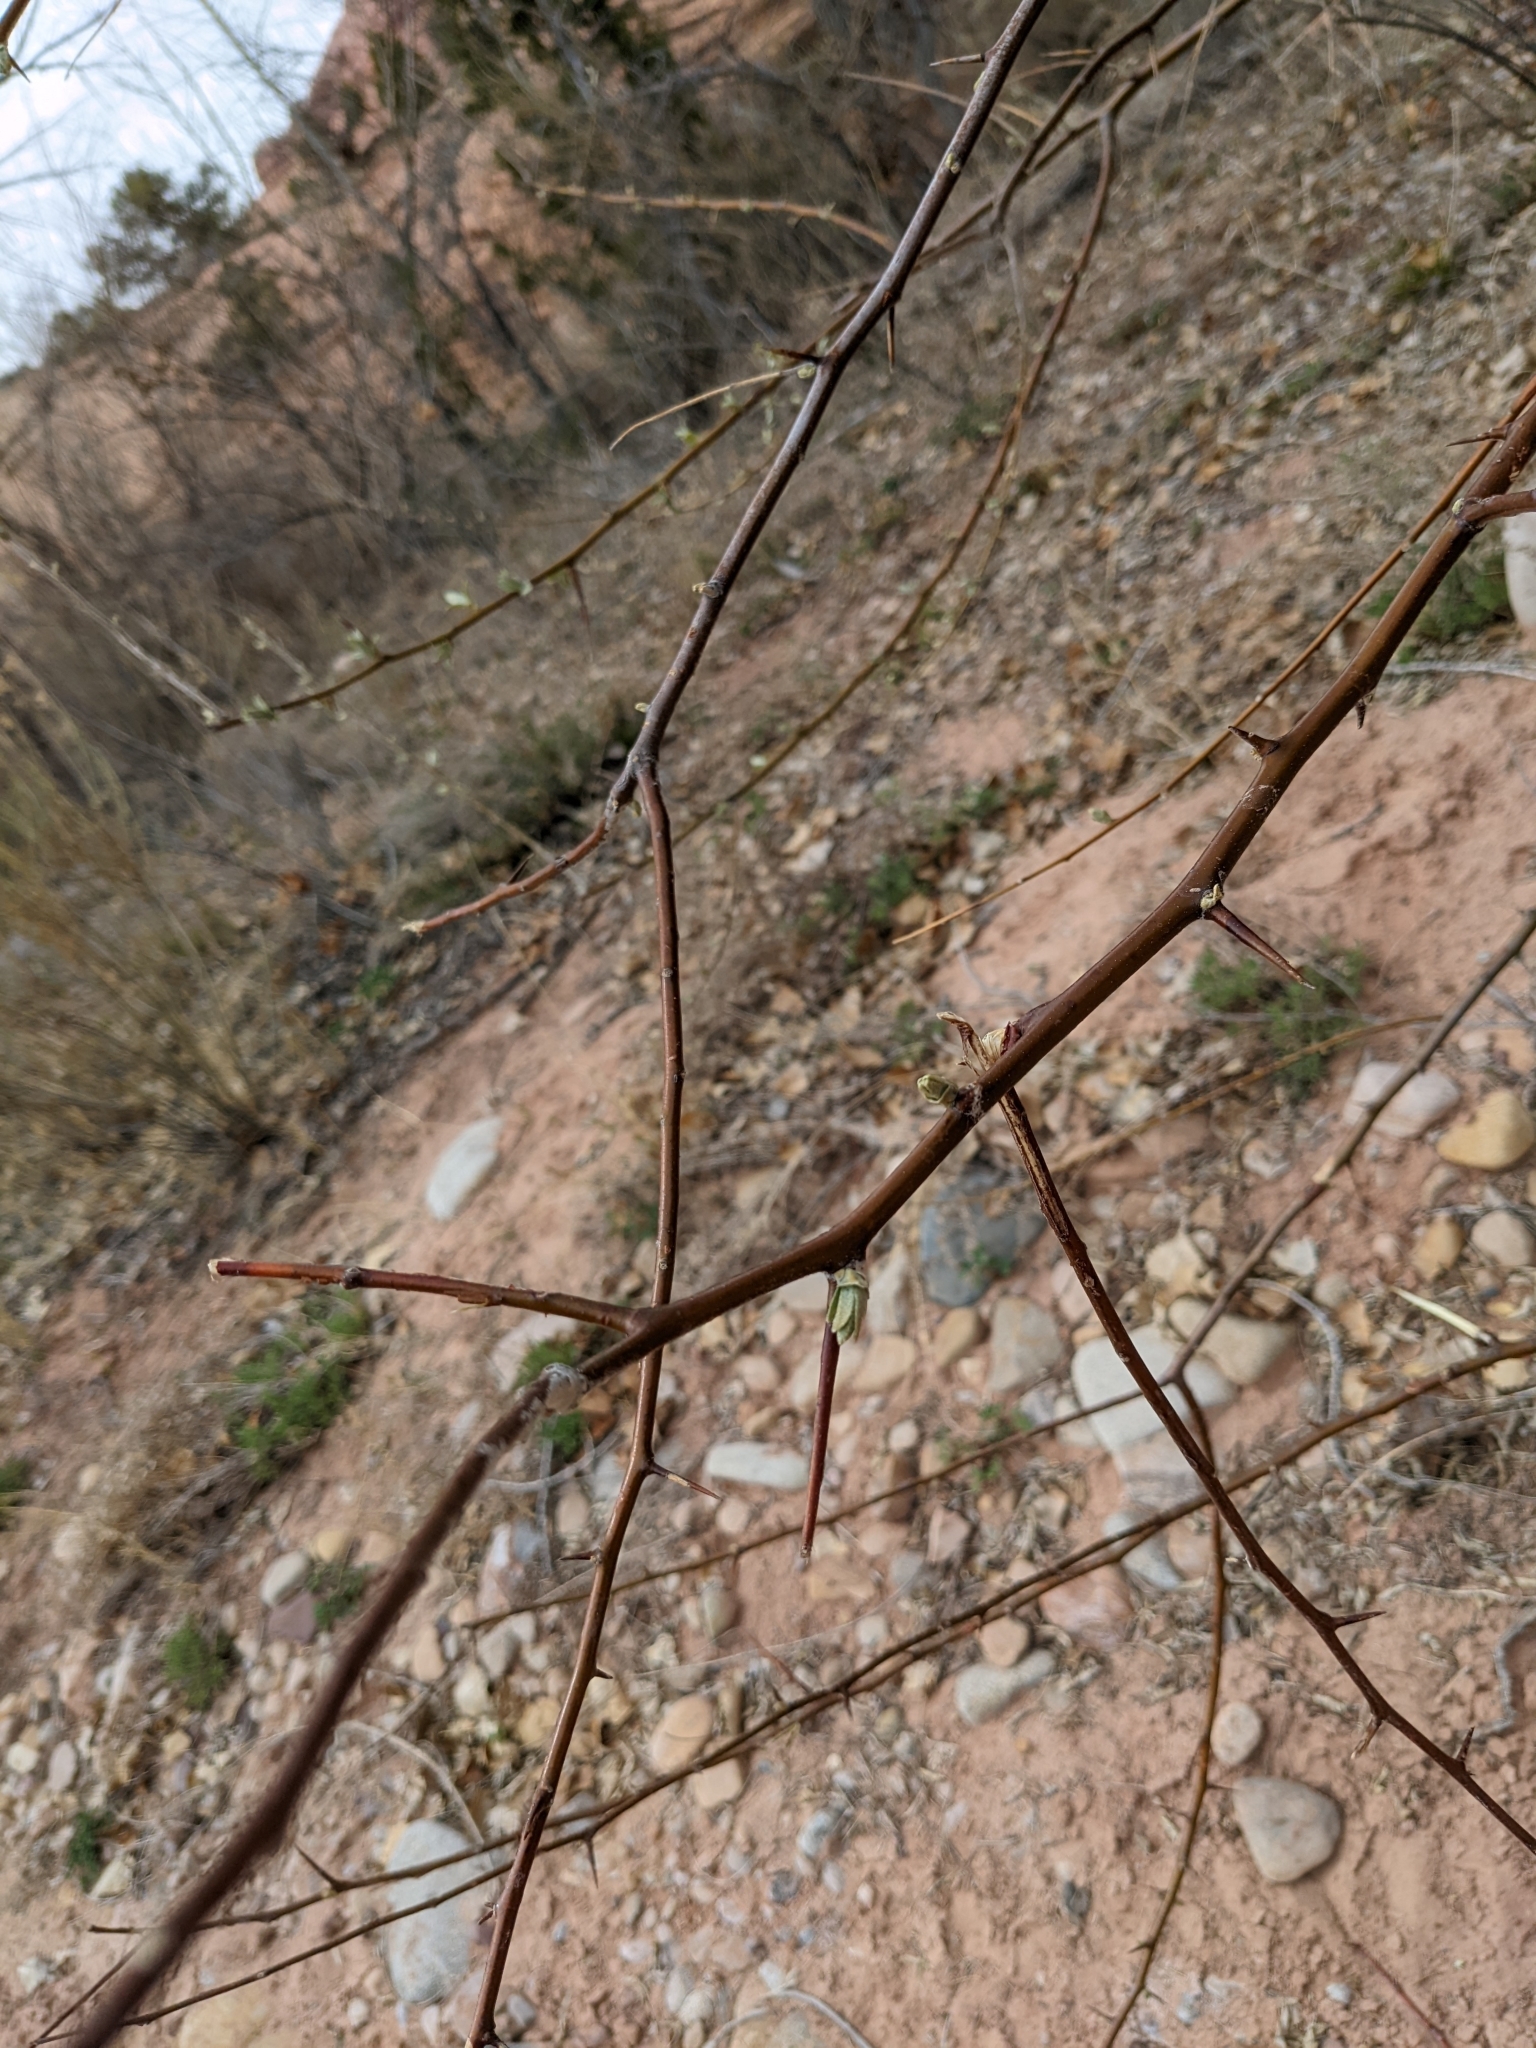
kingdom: Plantae
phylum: Tracheophyta
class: Magnoliopsida
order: Rosales
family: Elaeagnaceae
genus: Elaeagnus
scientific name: Elaeagnus angustifolia
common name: Russian olive
